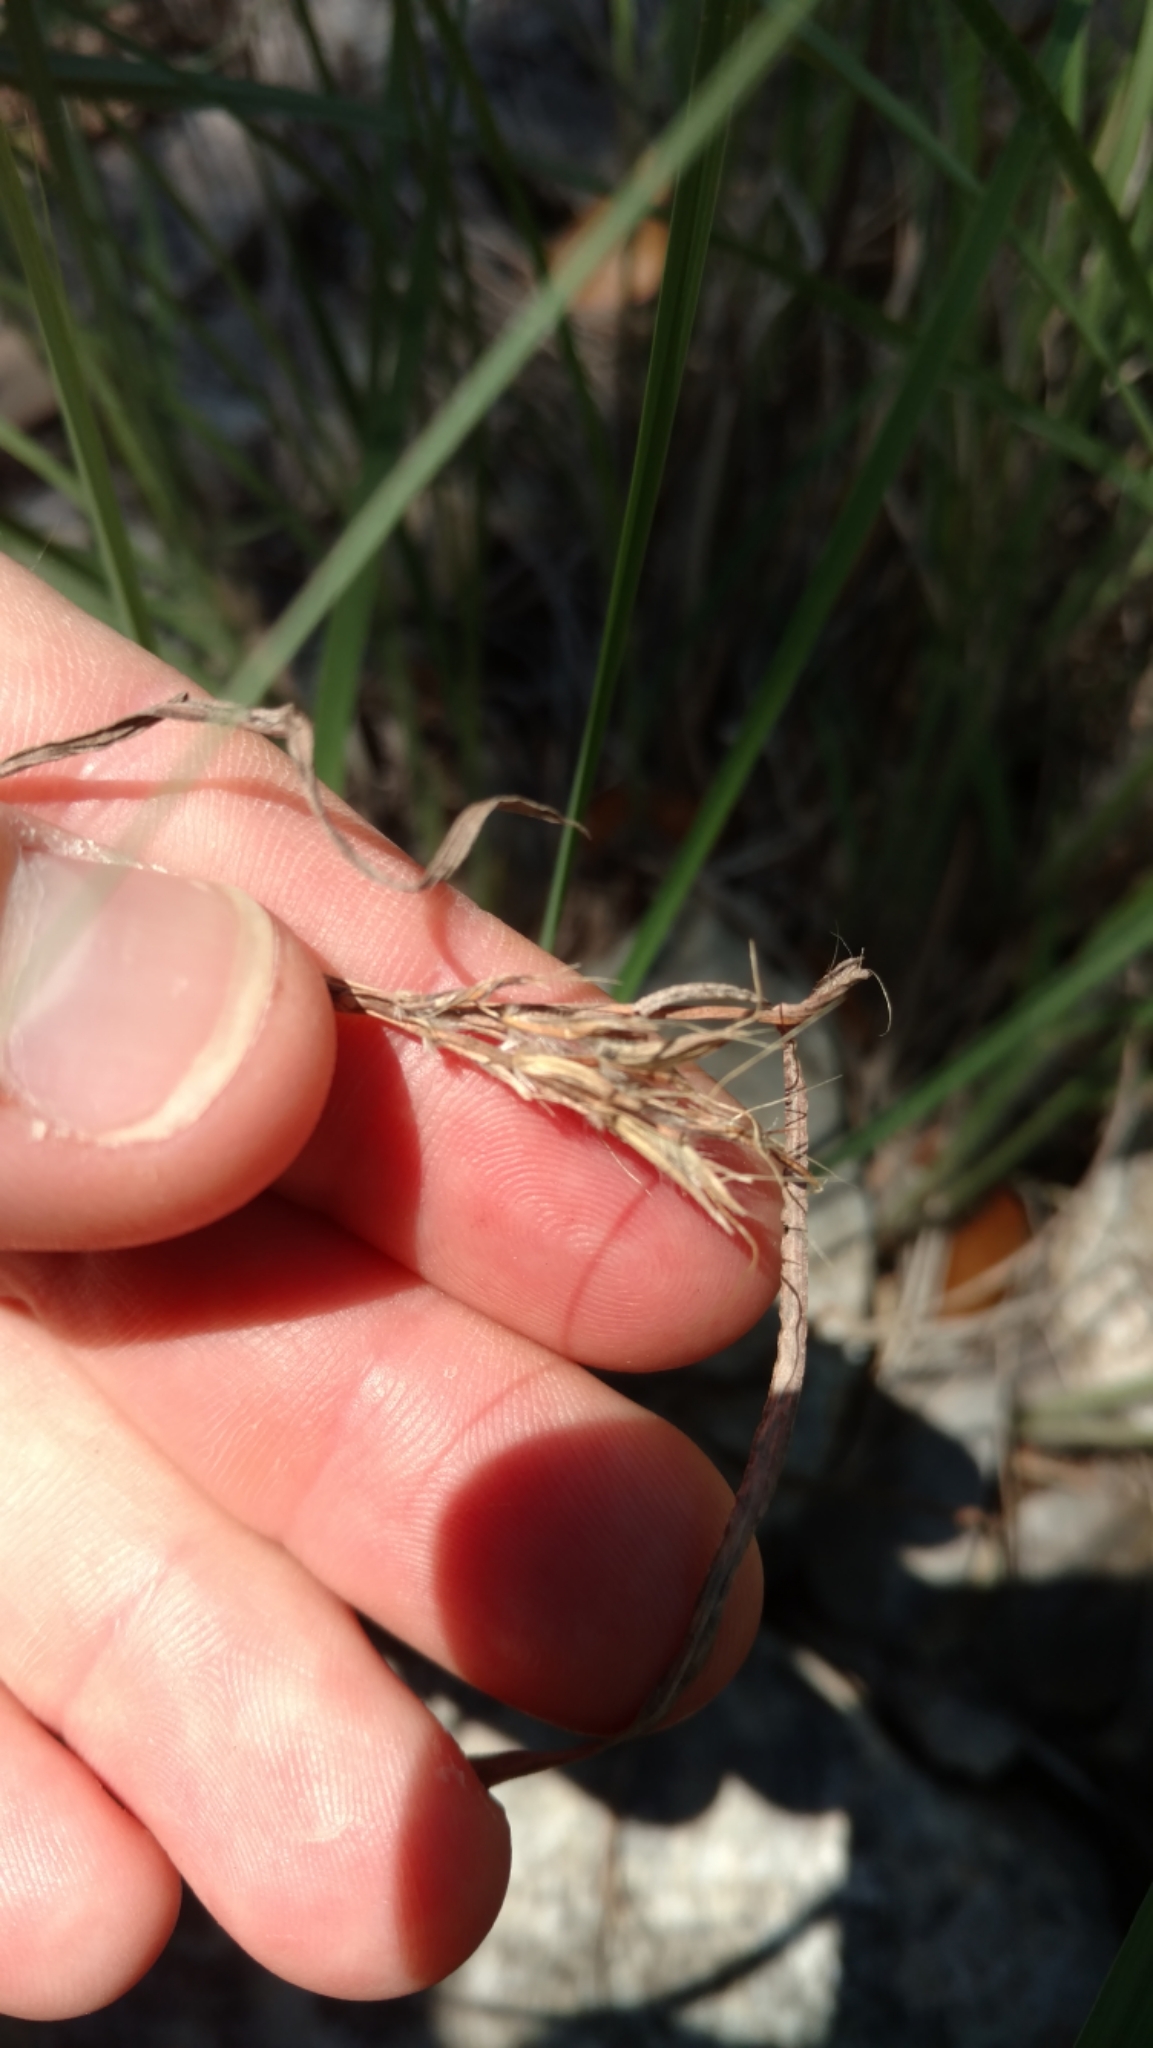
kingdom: Plantae
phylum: Tracheophyta
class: Liliopsida
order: Poales
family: Poaceae
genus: Andropogon
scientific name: Andropogon gerardi
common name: Big bluestem
